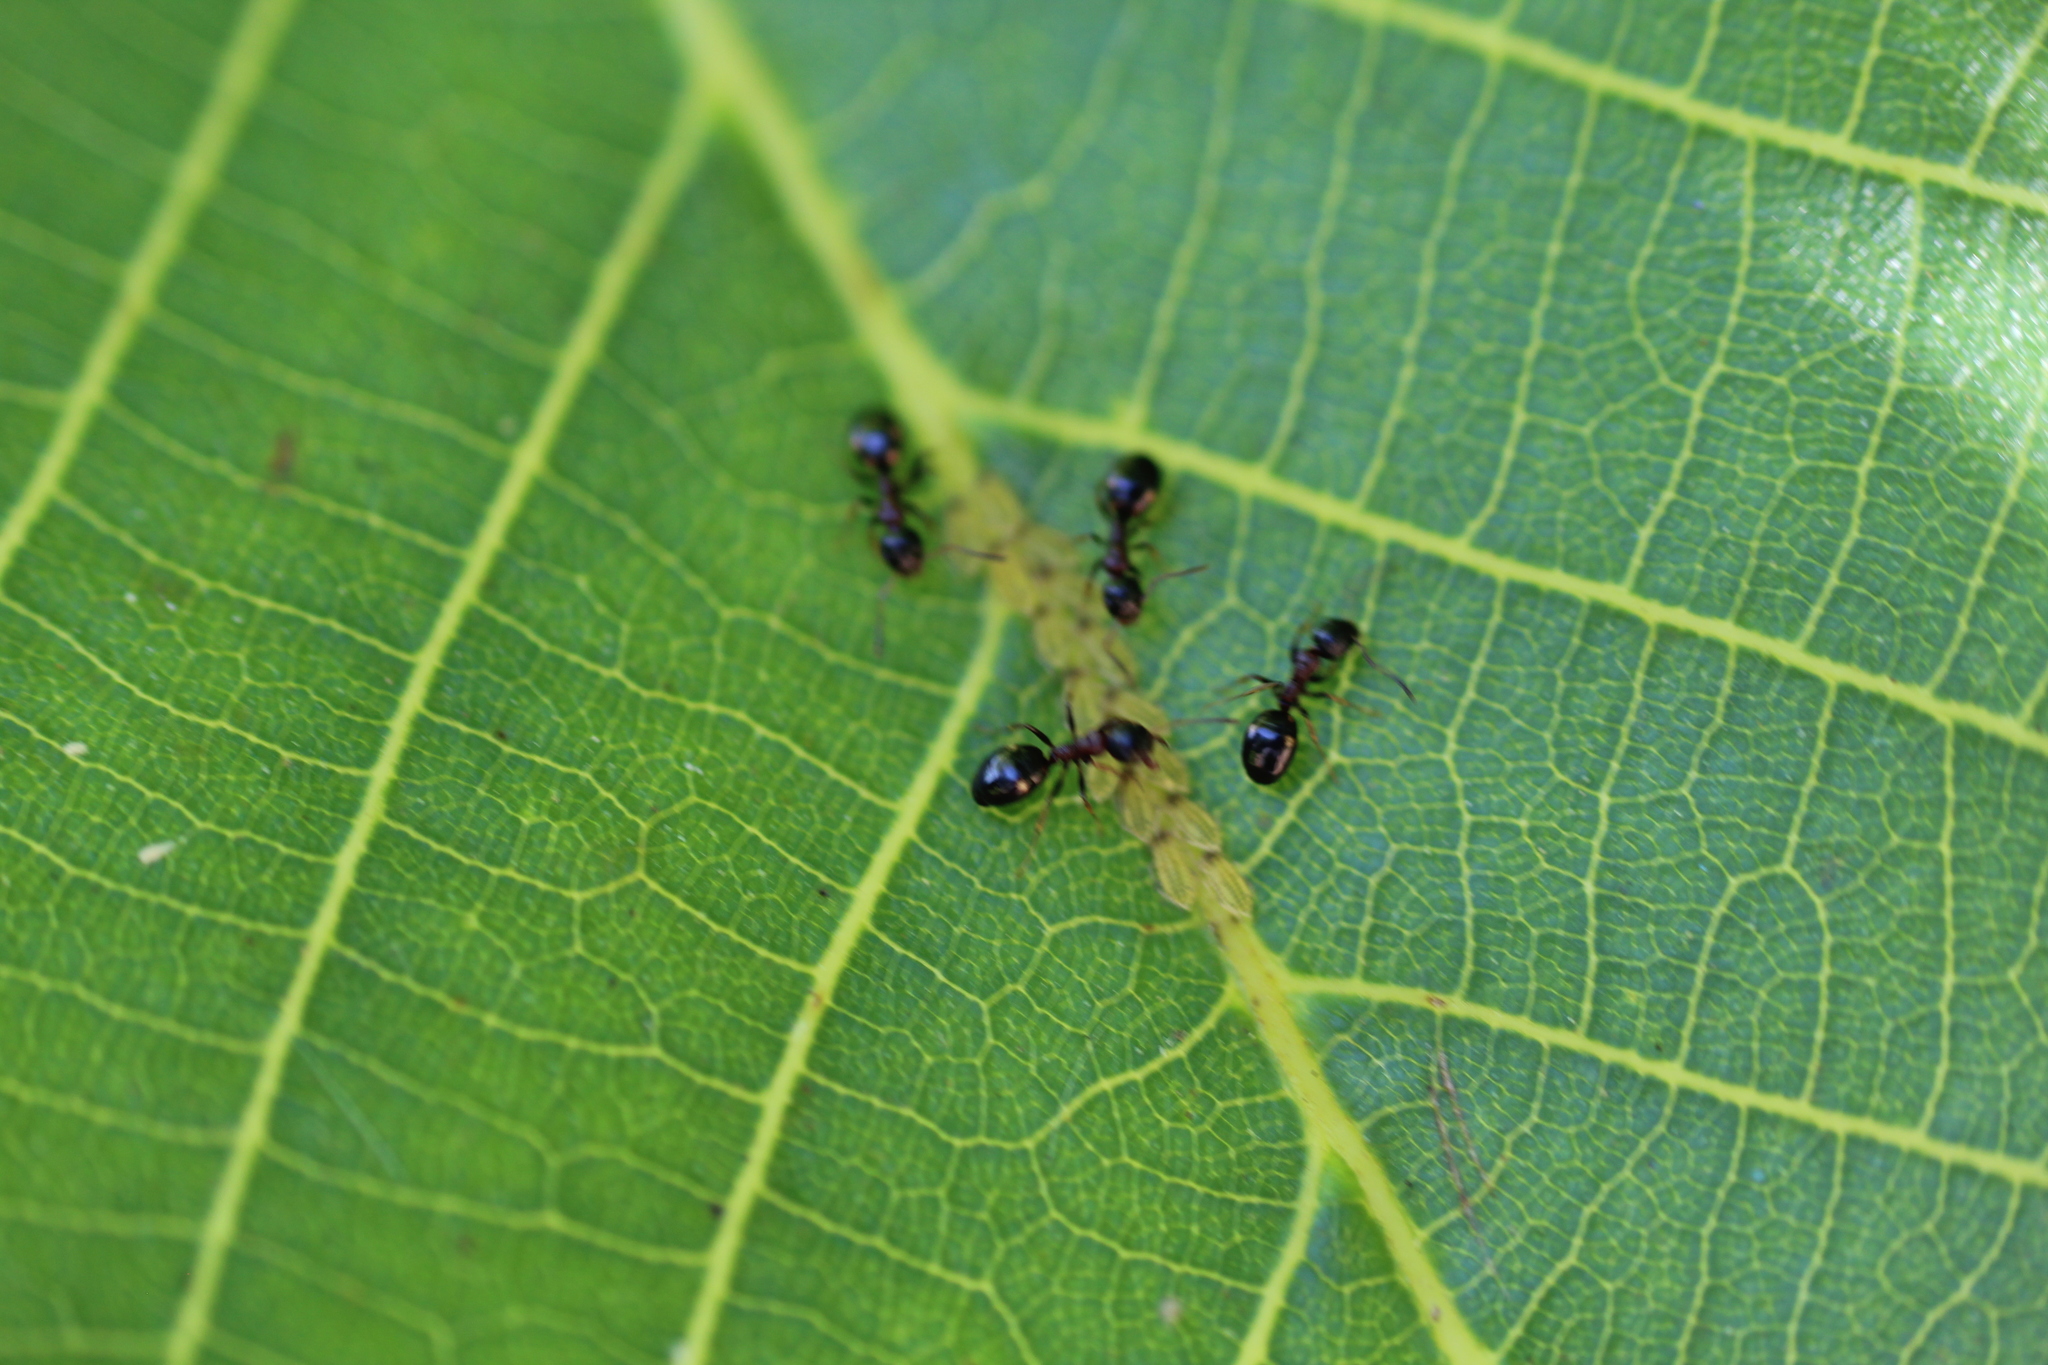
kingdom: Animalia
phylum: Arthropoda
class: Insecta
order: Hymenoptera
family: Formicidae
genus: Dolichoderus
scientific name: Dolichoderus quadripunctatus
